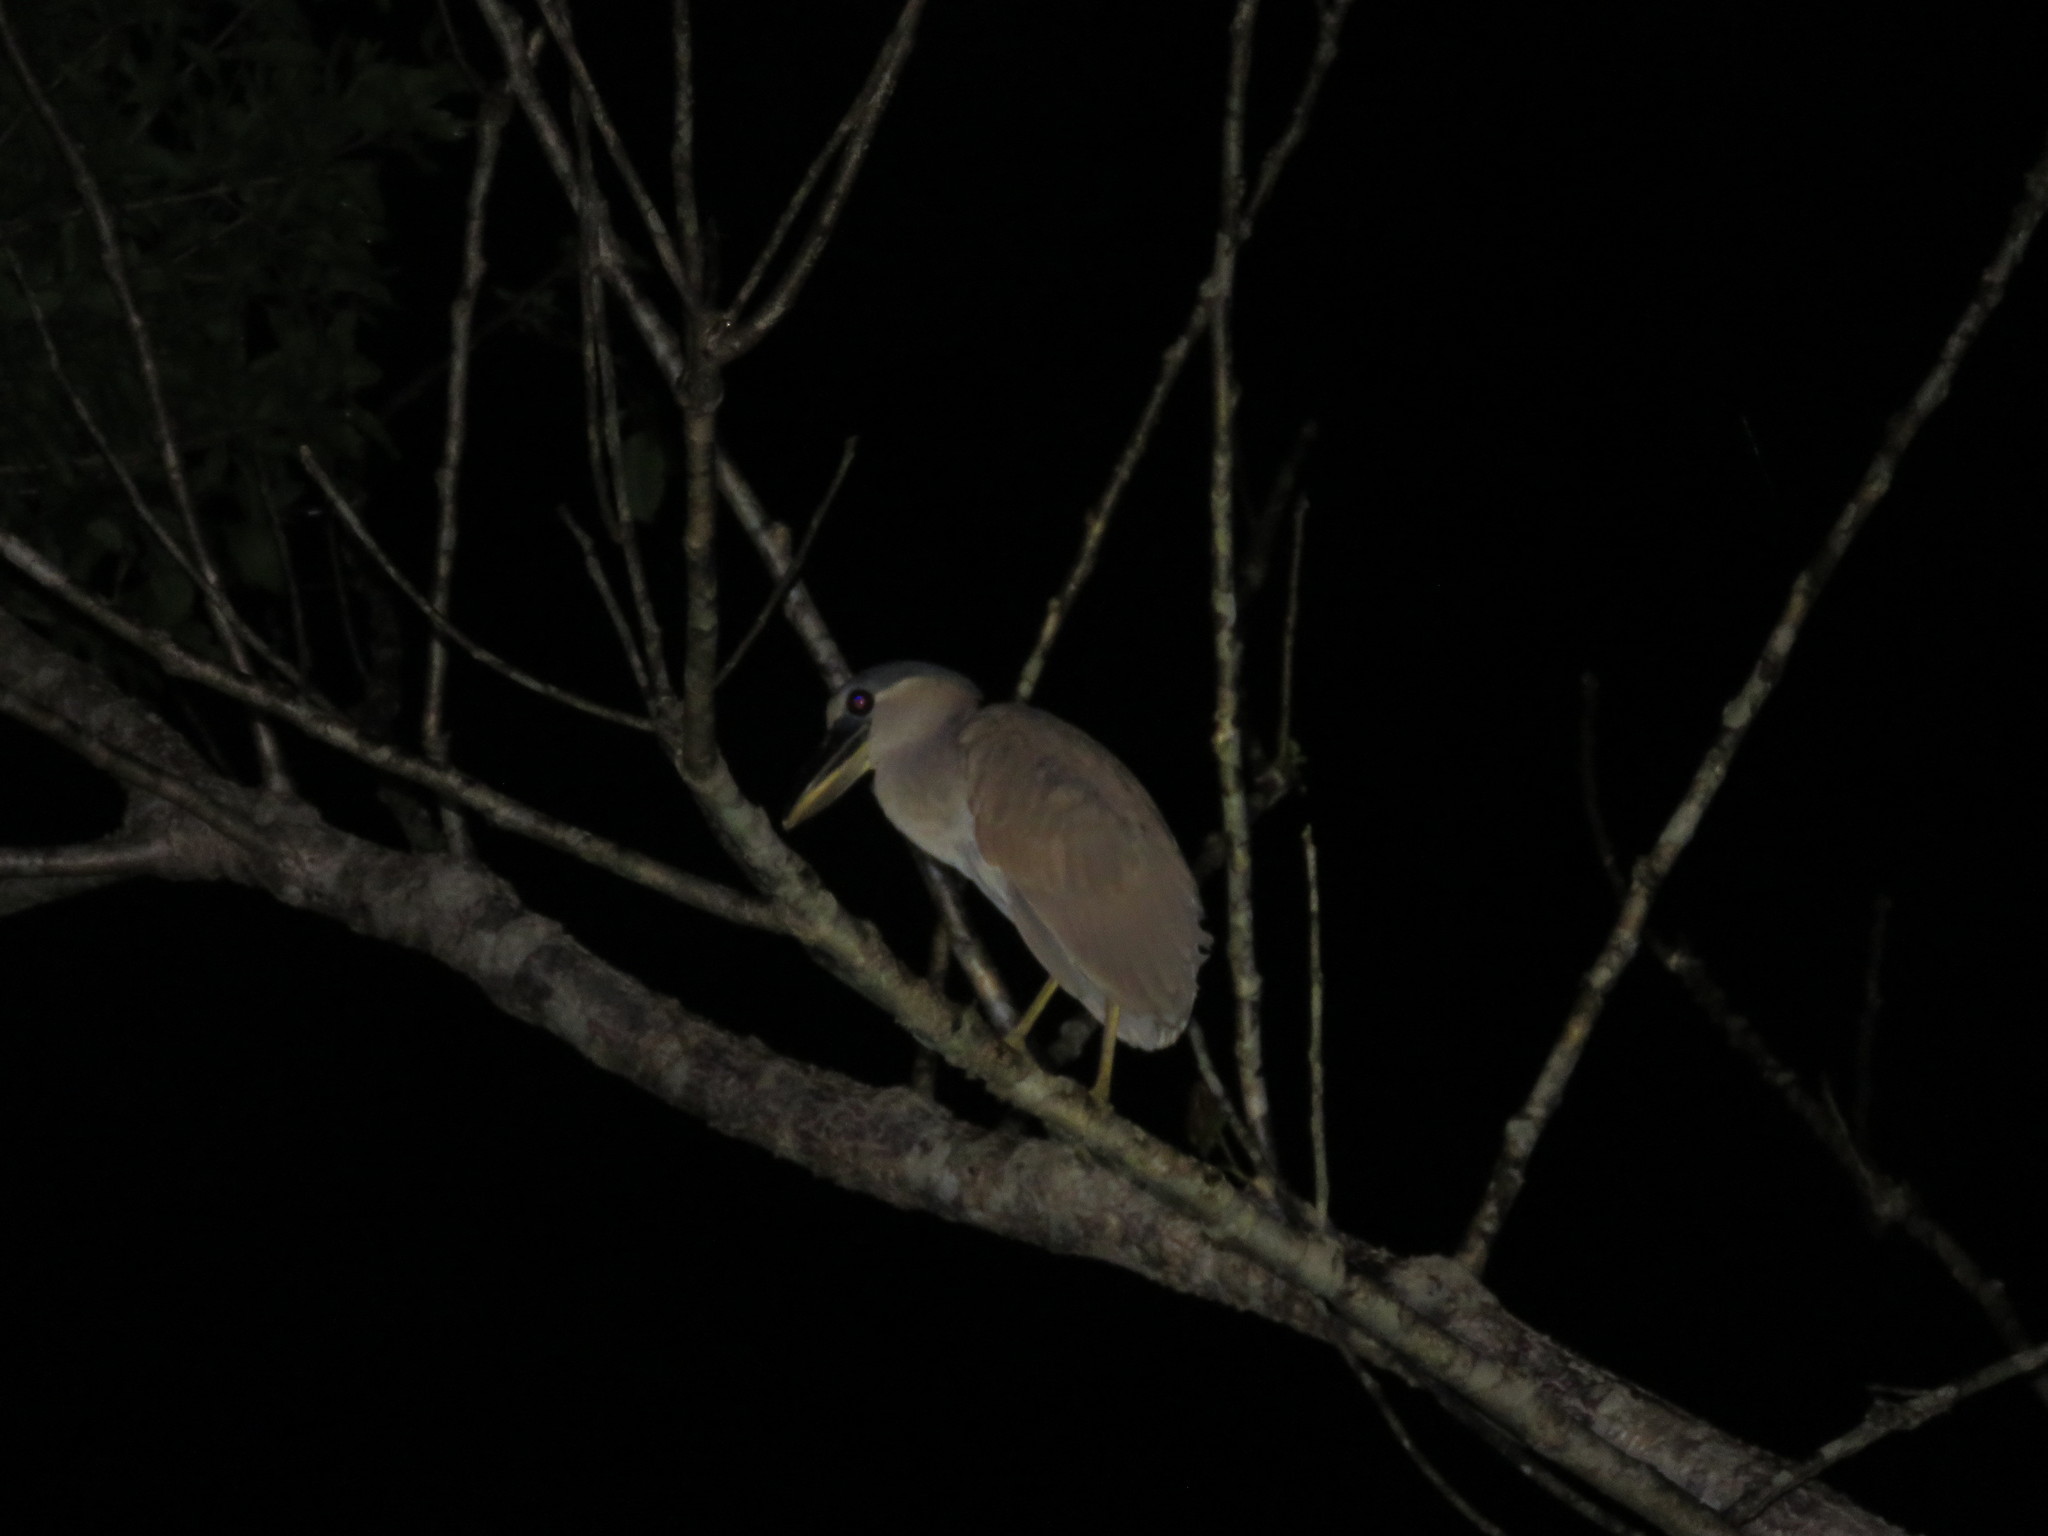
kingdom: Animalia
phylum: Chordata
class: Aves
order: Pelecaniformes
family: Ardeidae
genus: Cochlearius
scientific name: Cochlearius cochlearius
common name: Boat-billed heron
